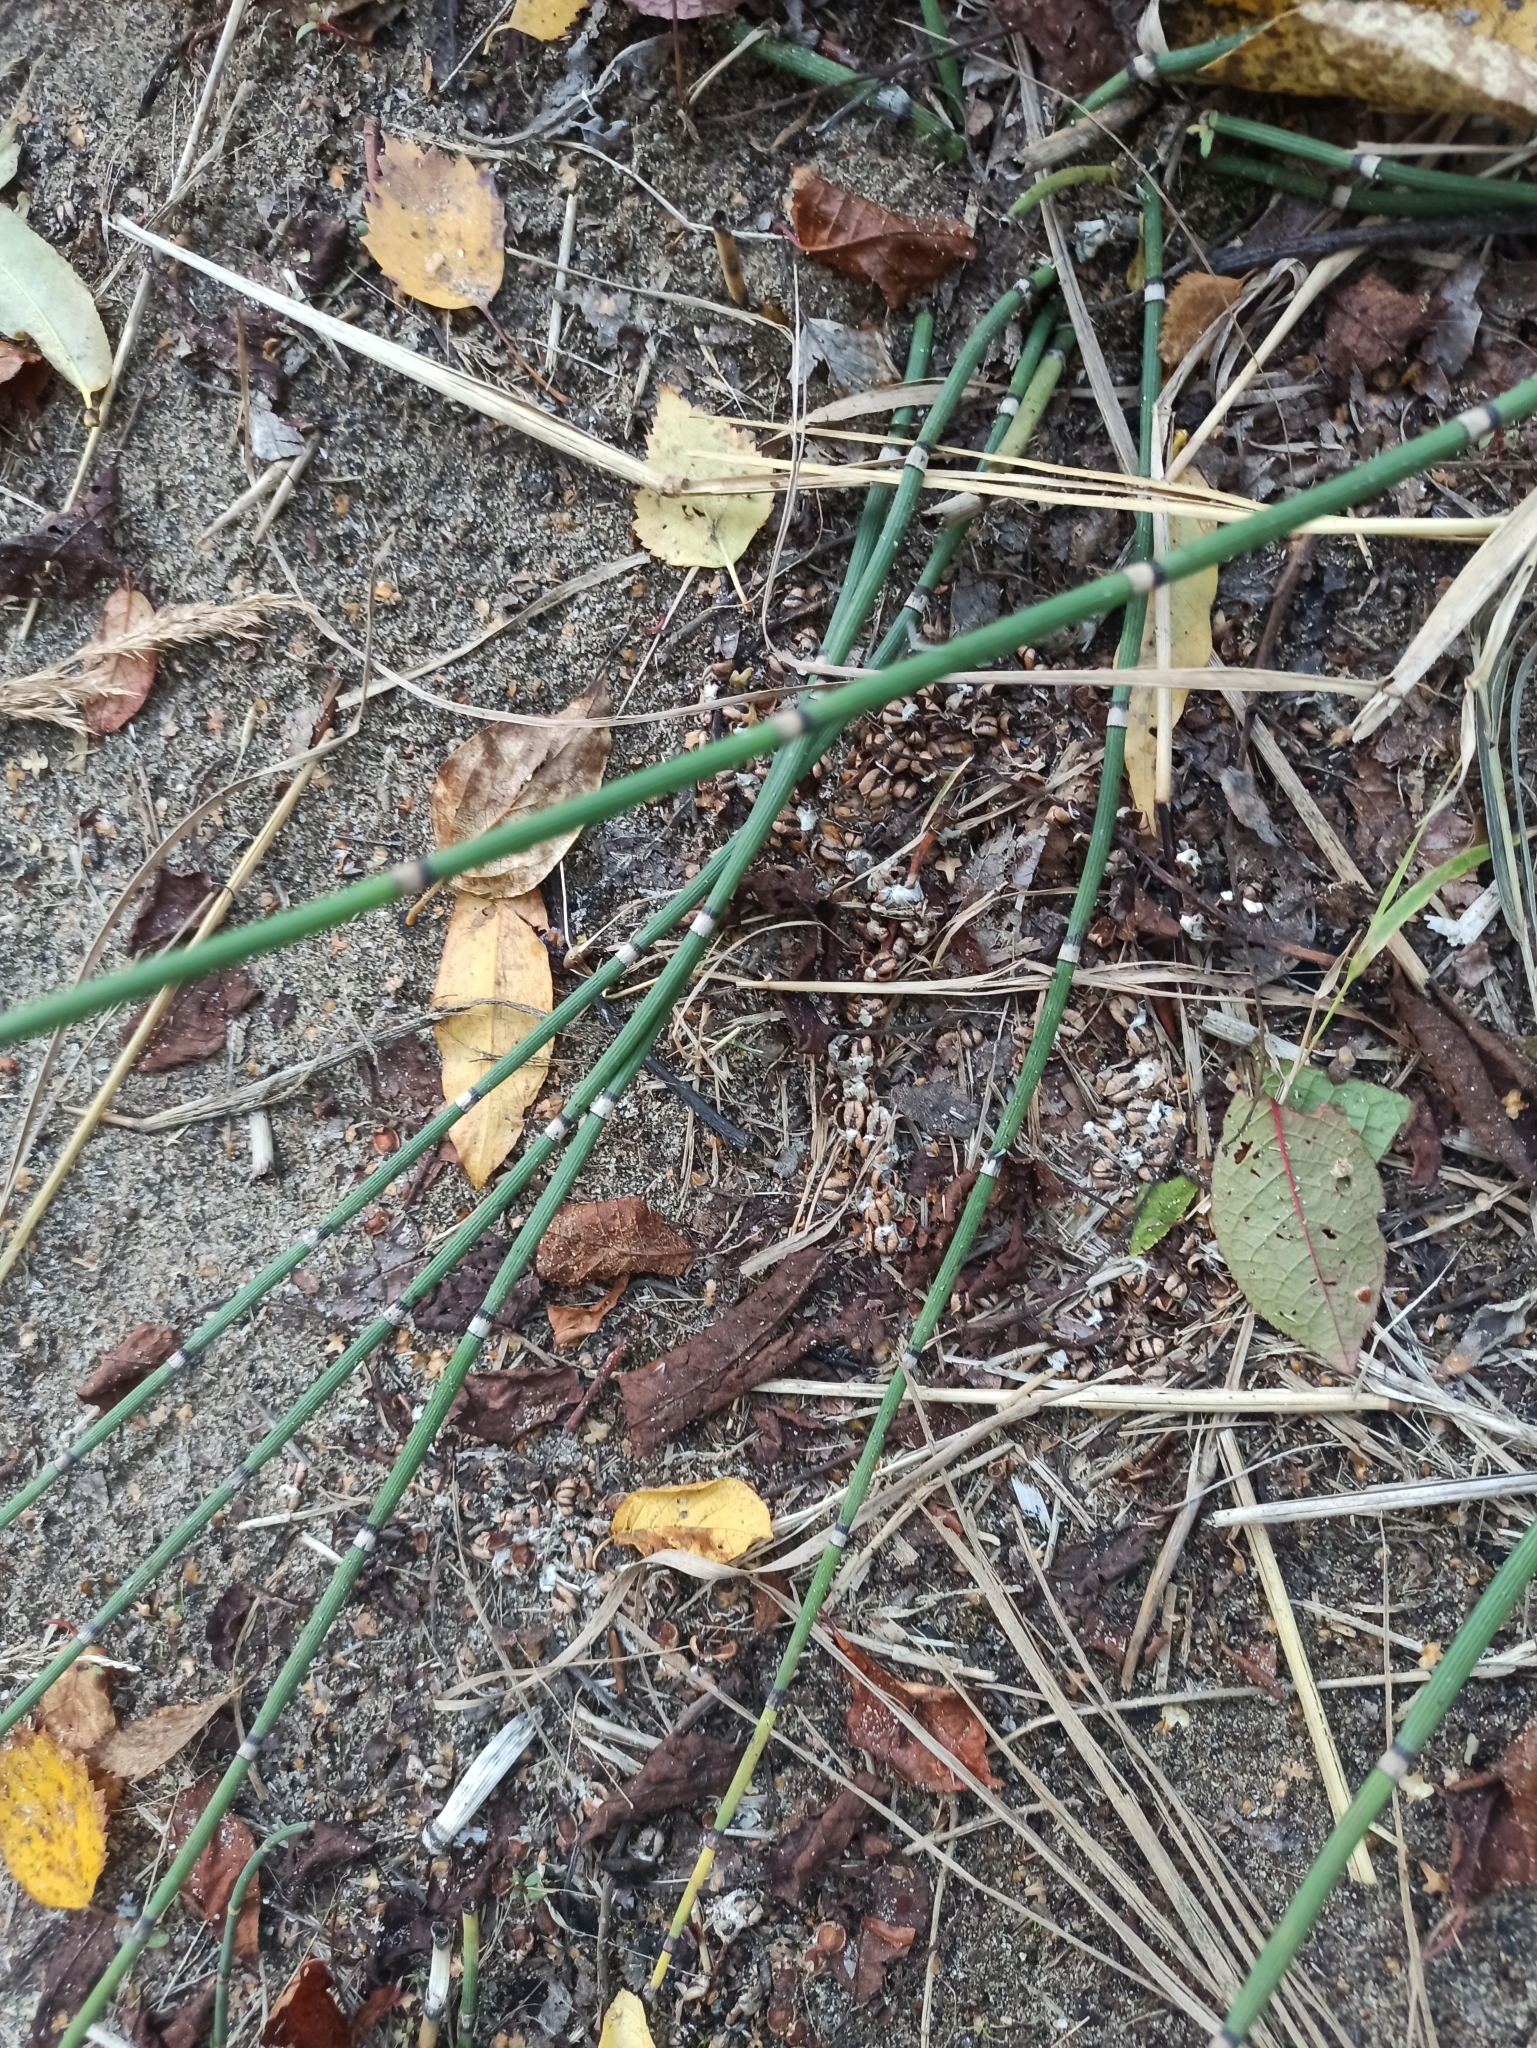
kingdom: Plantae
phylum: Tracheophyta
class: Polypodiopsida
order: Equisetales
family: Equisetaceae
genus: Equisetum
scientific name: Equisetum hyemale
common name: Rough horsetail
